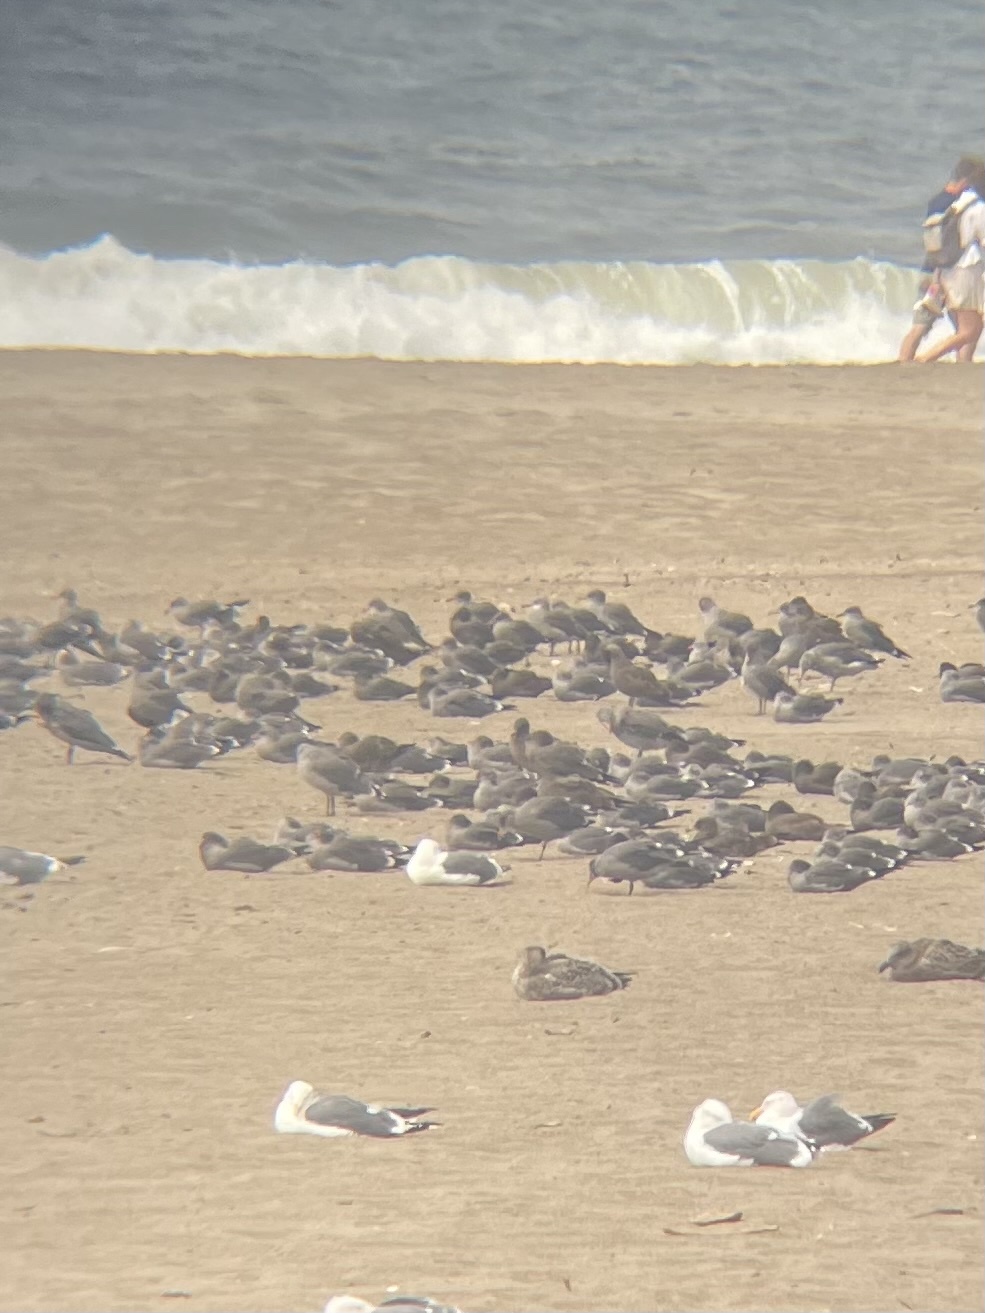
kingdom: Animalia
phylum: Chordata
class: Aves
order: Charadriiformes
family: Laridae
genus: Larus
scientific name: Larus heermanni
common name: Heermann's gull
